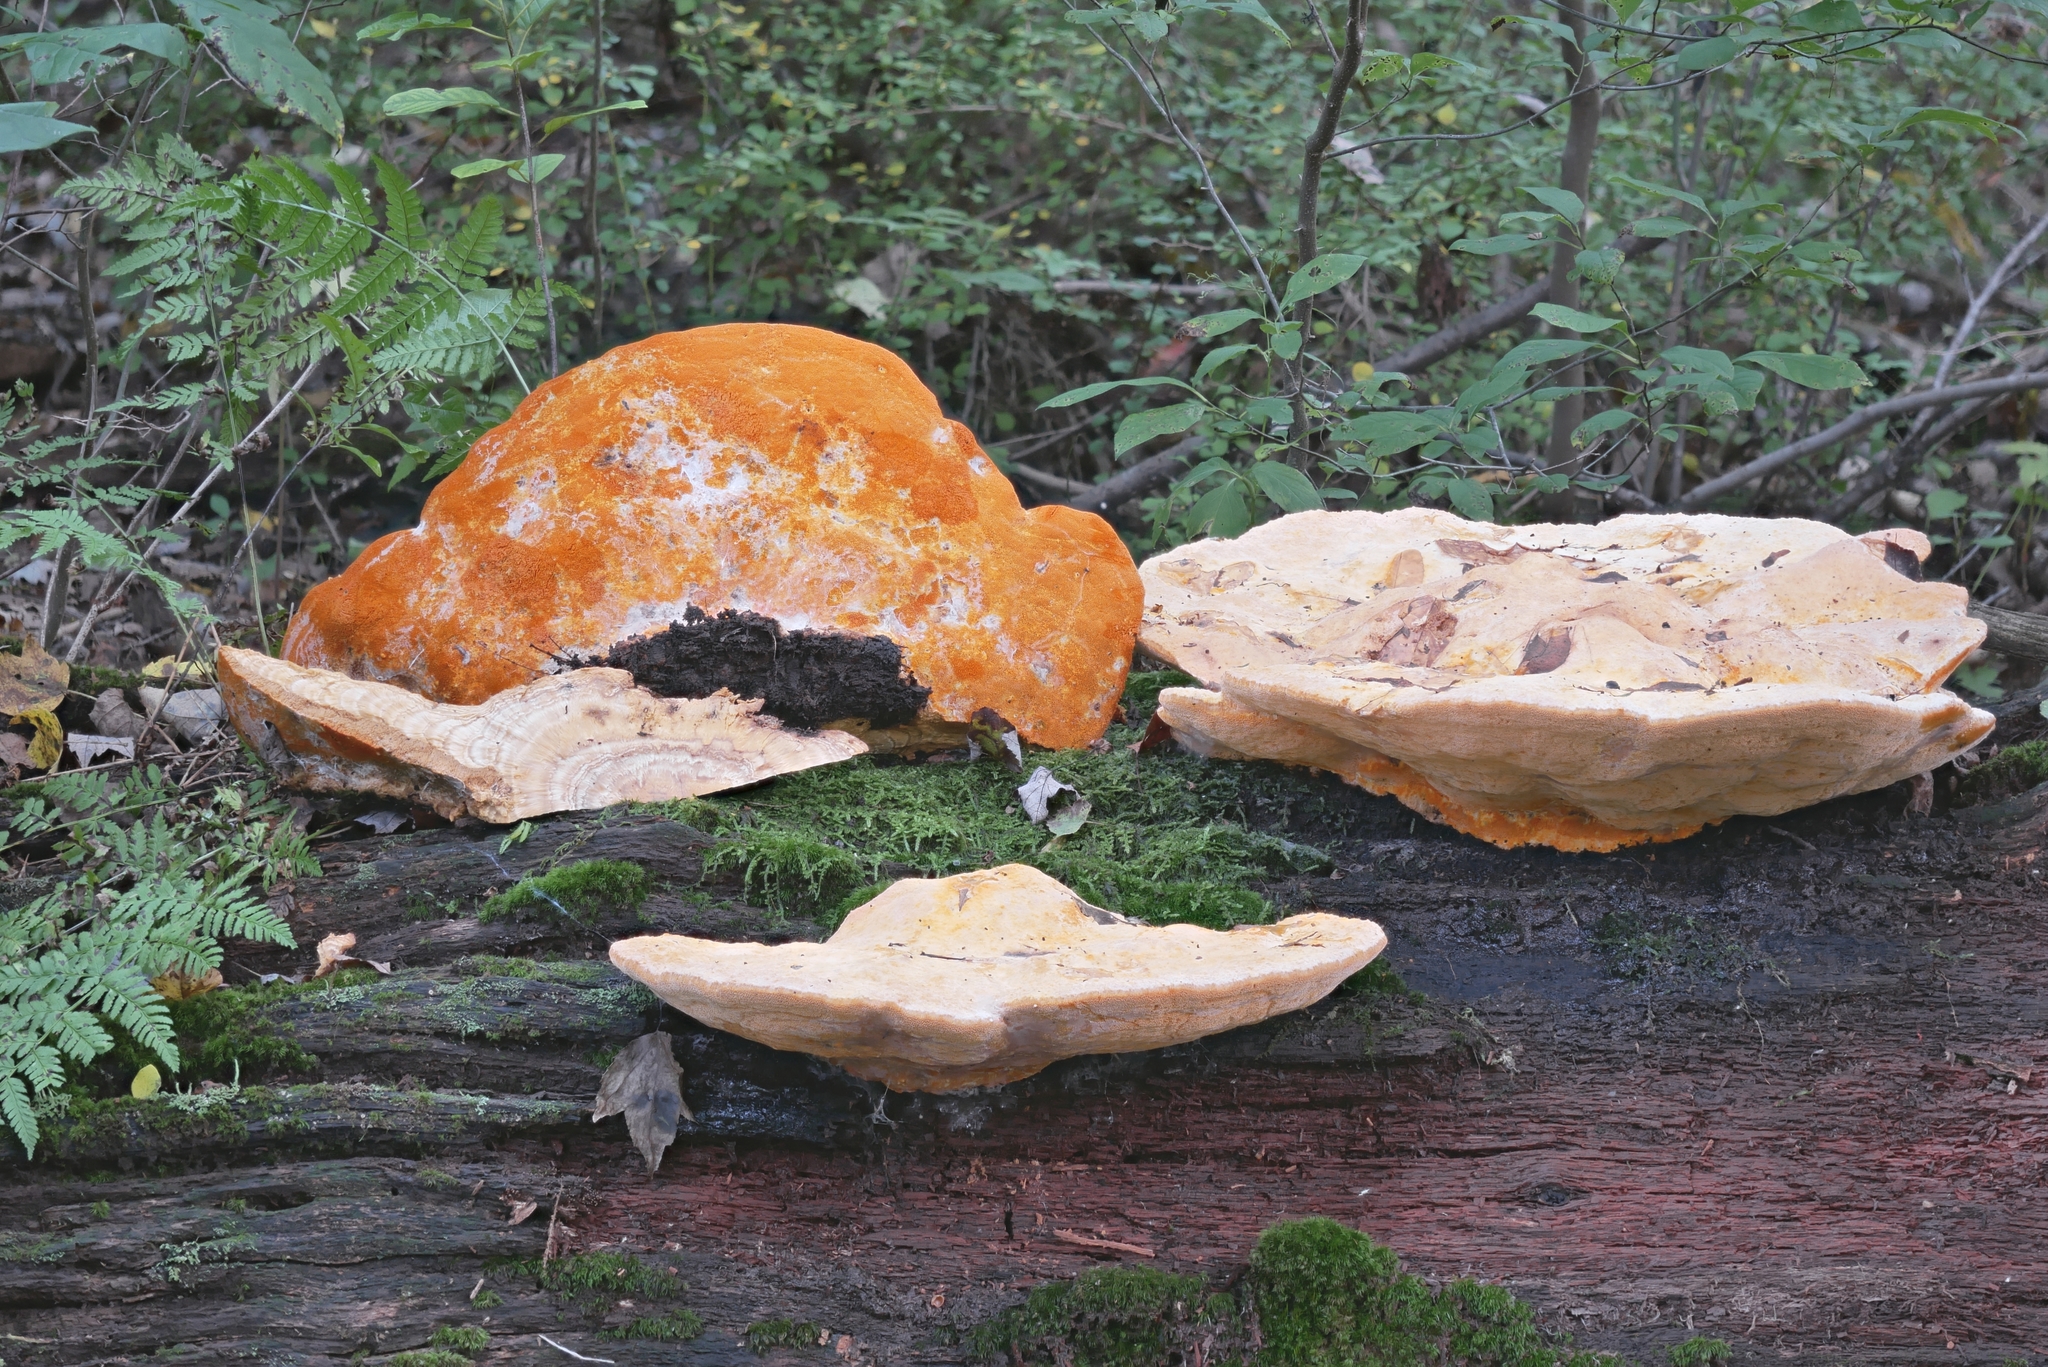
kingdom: Fungi
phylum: Basidiomycota
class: Agaricomycetes
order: Polyporales
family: Phanerochaetaceae
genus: Hapalopilus
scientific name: Hapalopilus croceus
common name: Orange polypore
